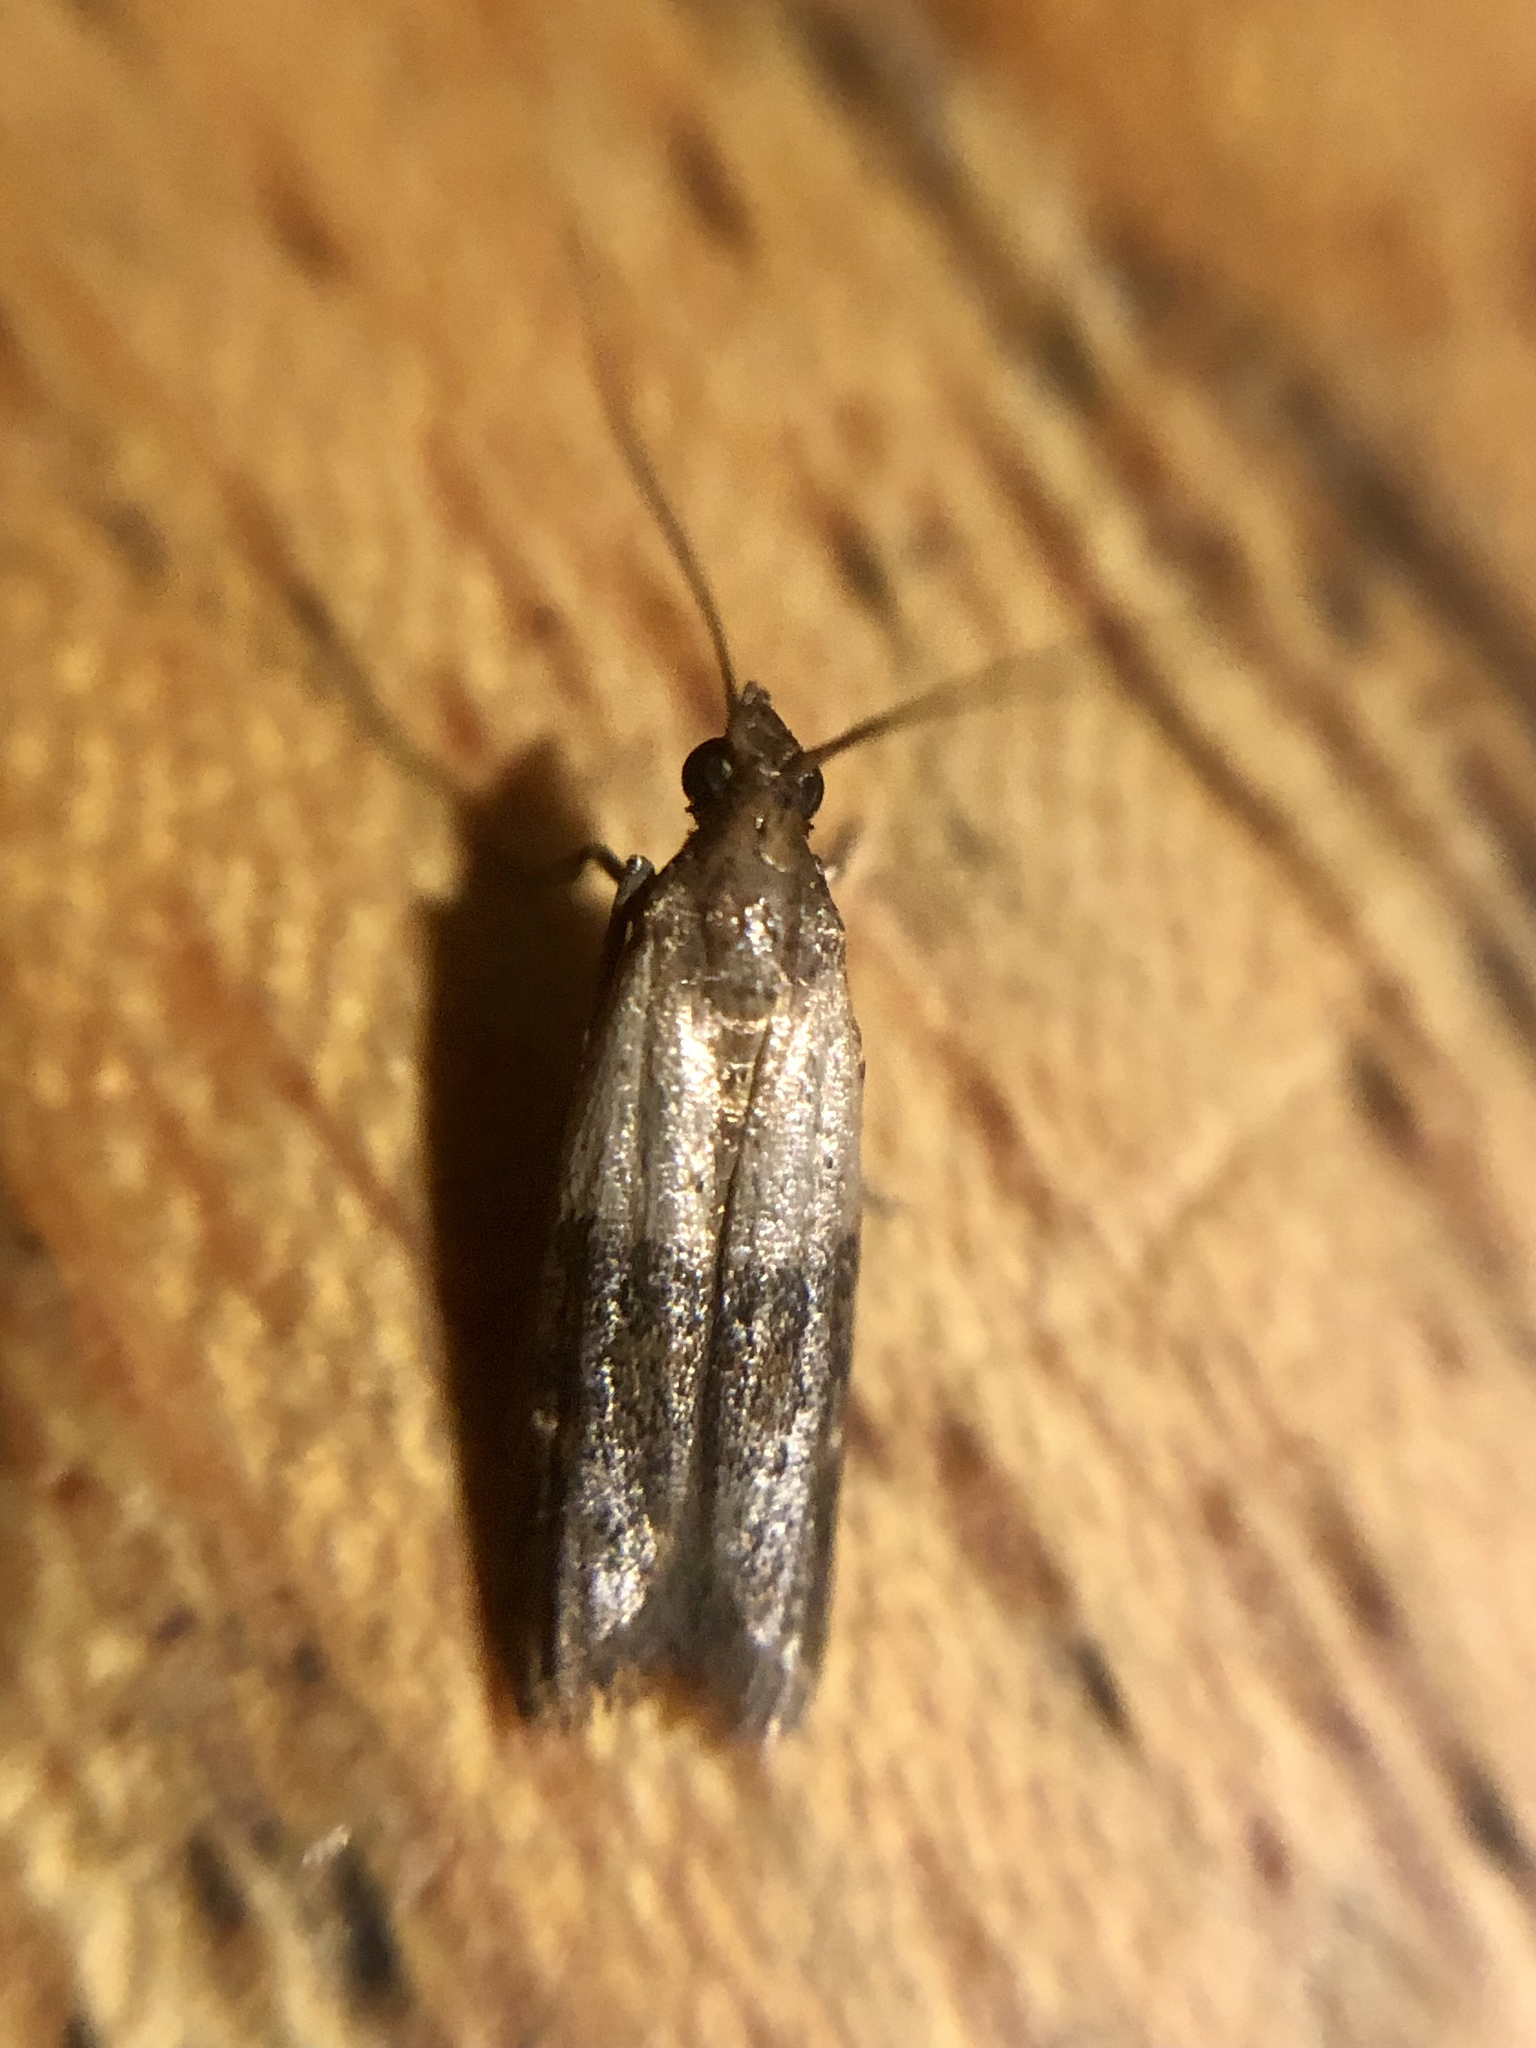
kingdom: Animalia
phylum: Arthropoda
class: Insecta
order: Lepidoptera
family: Pyralidae
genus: Plodia
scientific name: Plodia interpunctella
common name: Indian meal moth
